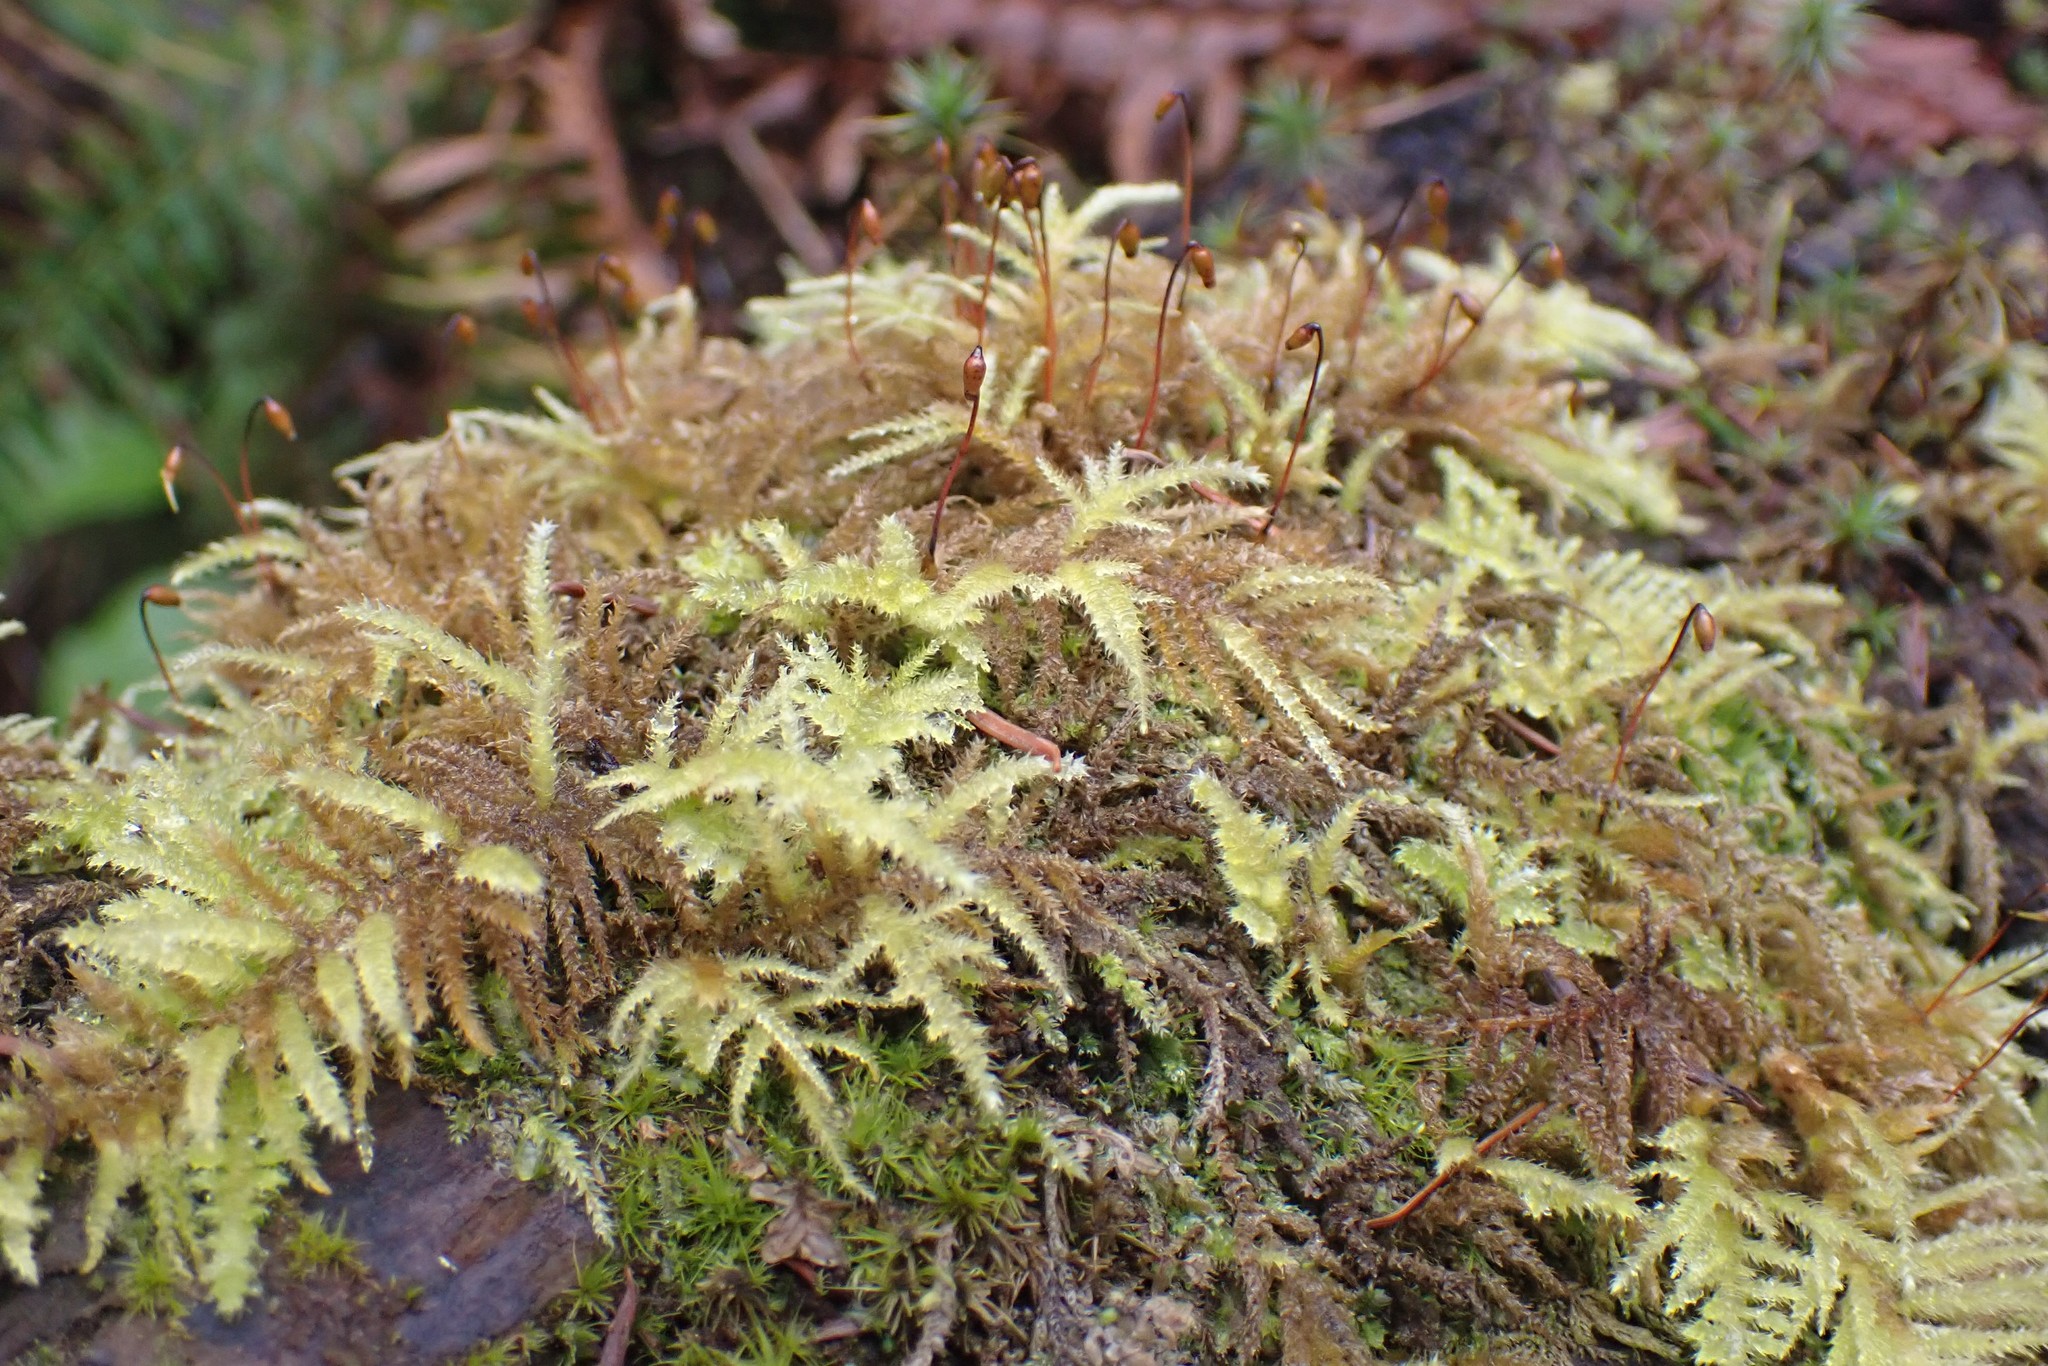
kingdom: Plantae
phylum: Bryophyta
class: Bryopsida
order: Hypnales
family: Brachytheciaceae
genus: Kindbergia
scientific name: Kindbergia oregana
